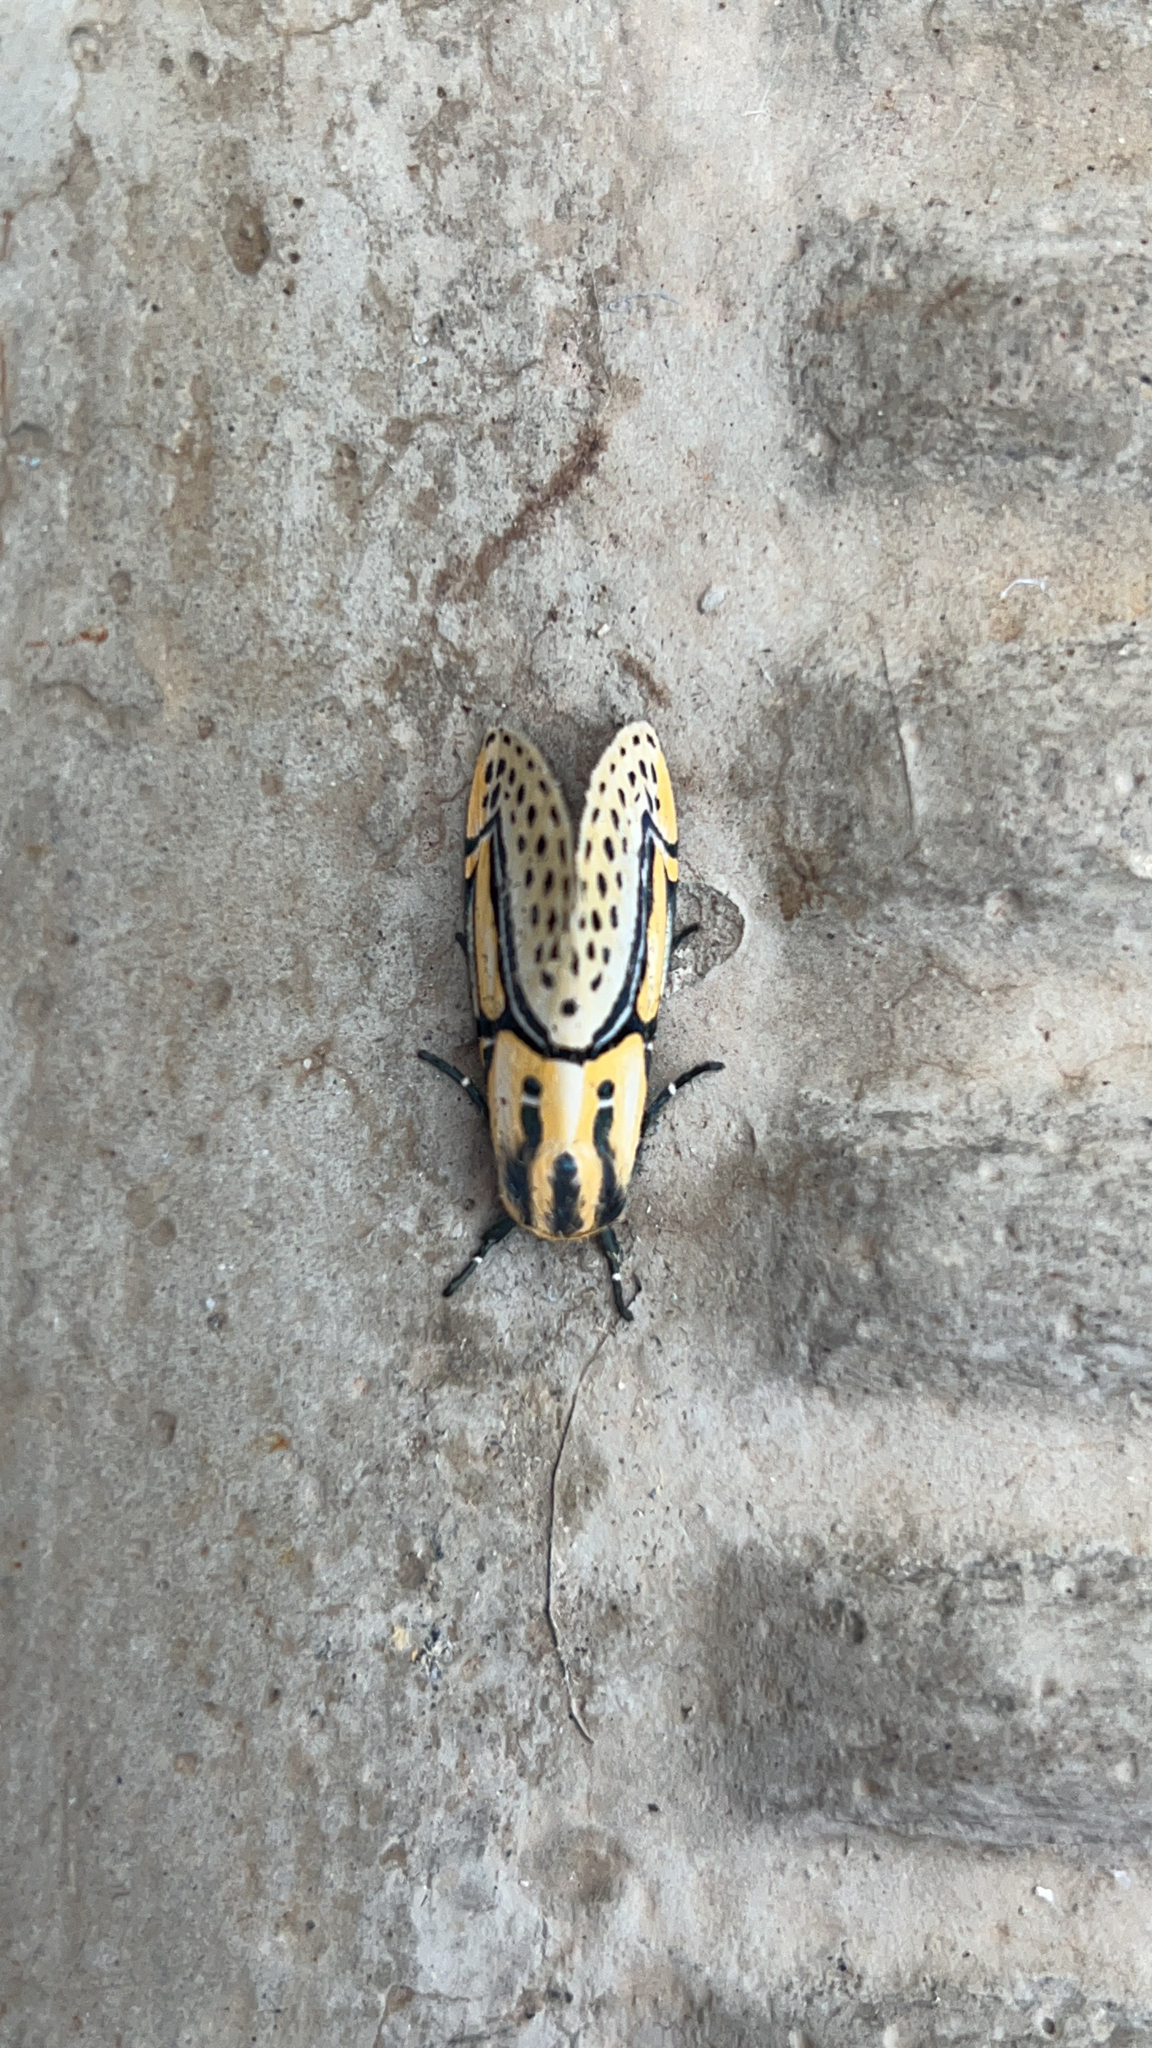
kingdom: Animalia
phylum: Arthropoda
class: Insecta
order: Lepidoptera
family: Erebidae
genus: Diphthera
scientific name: Diphthera festiva
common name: Hieroglyphic moth
